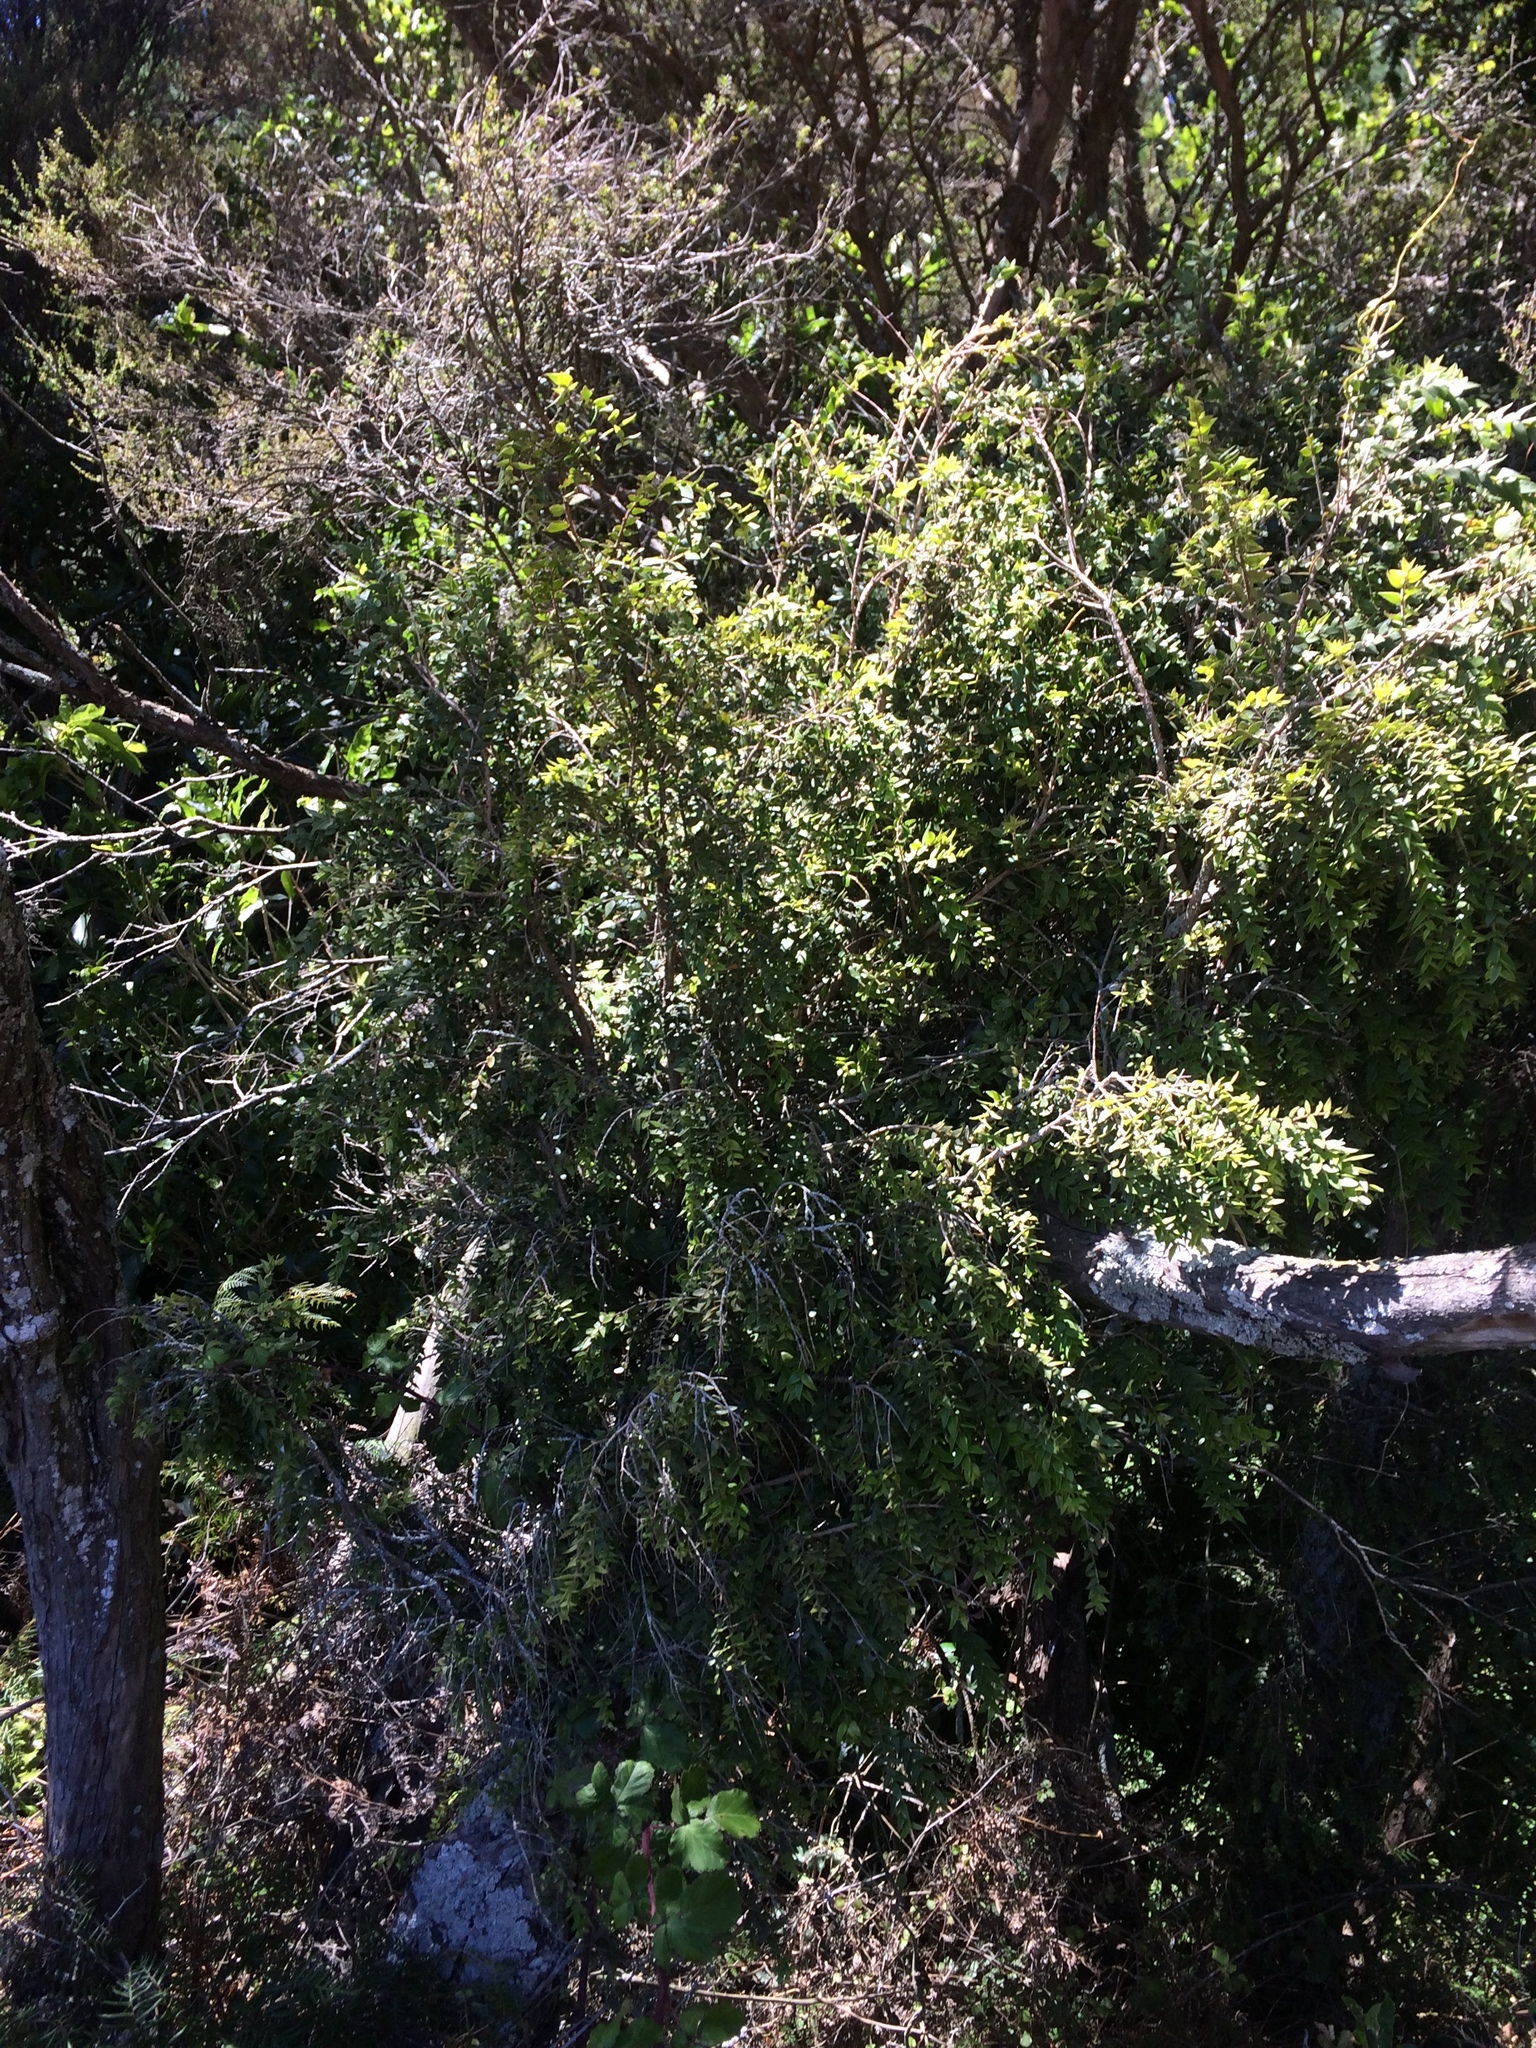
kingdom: Plantae
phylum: Tracheophyta
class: Magnoliopsida
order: Myrtales
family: Myrtaceae
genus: Metrosideros
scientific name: Metrosideros colensoi
